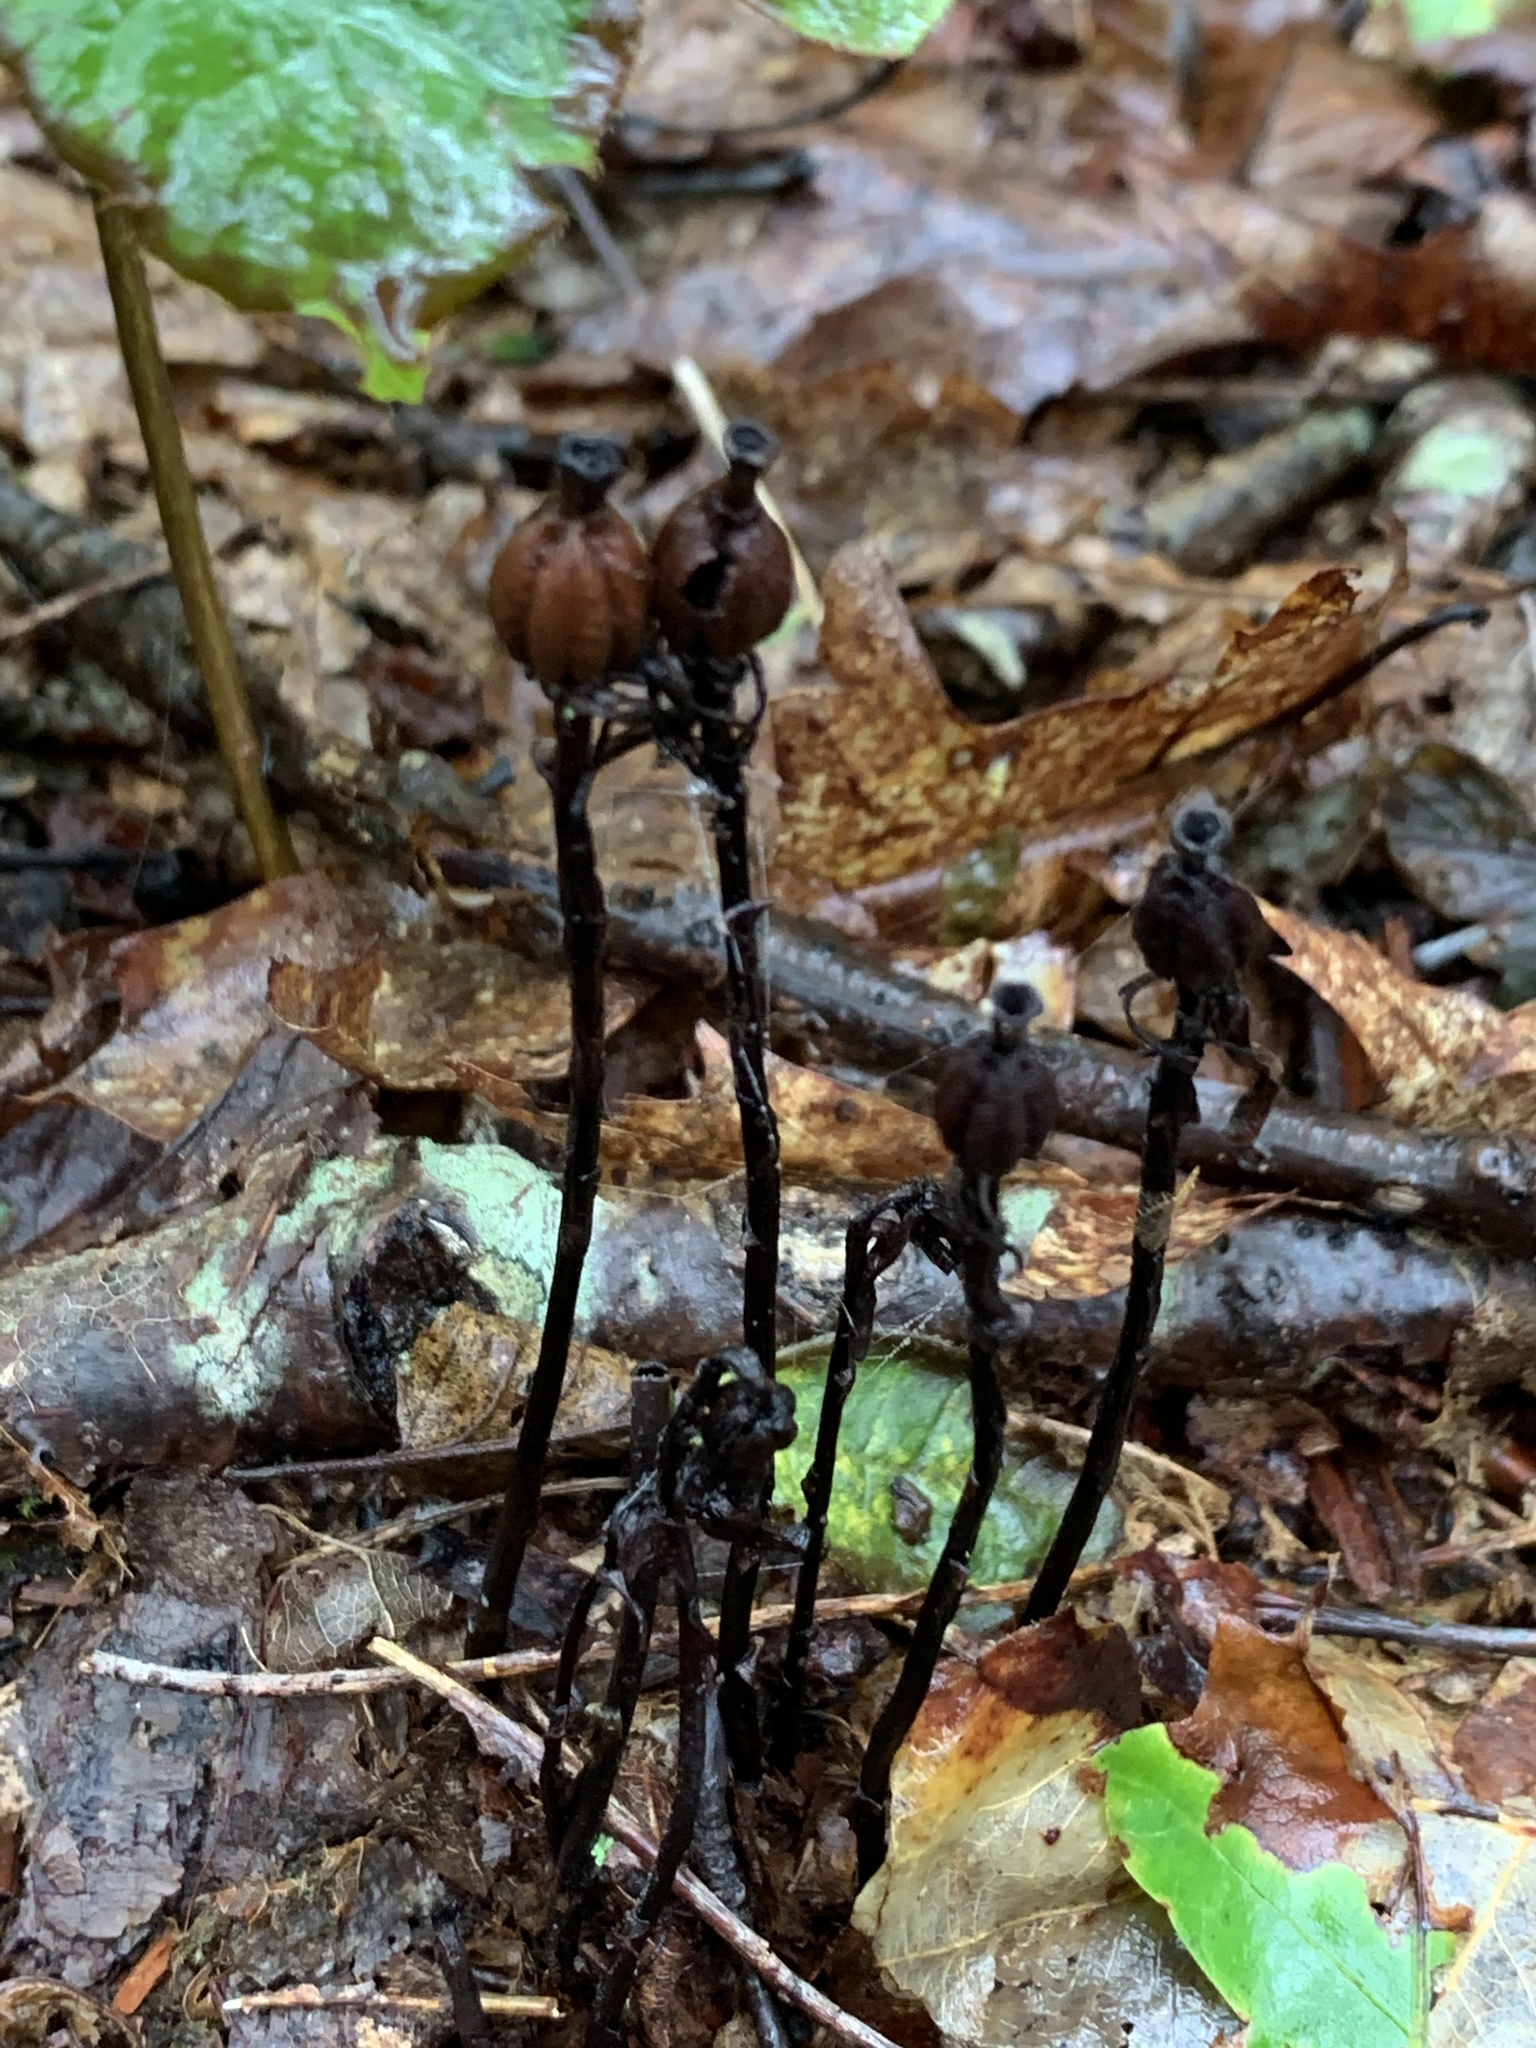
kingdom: Plantae
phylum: Tracheophyta
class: Magnoliopsida
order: Ericales
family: Ericaceae
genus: Monotropa
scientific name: Monotropa uniflora
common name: Convulsion root
